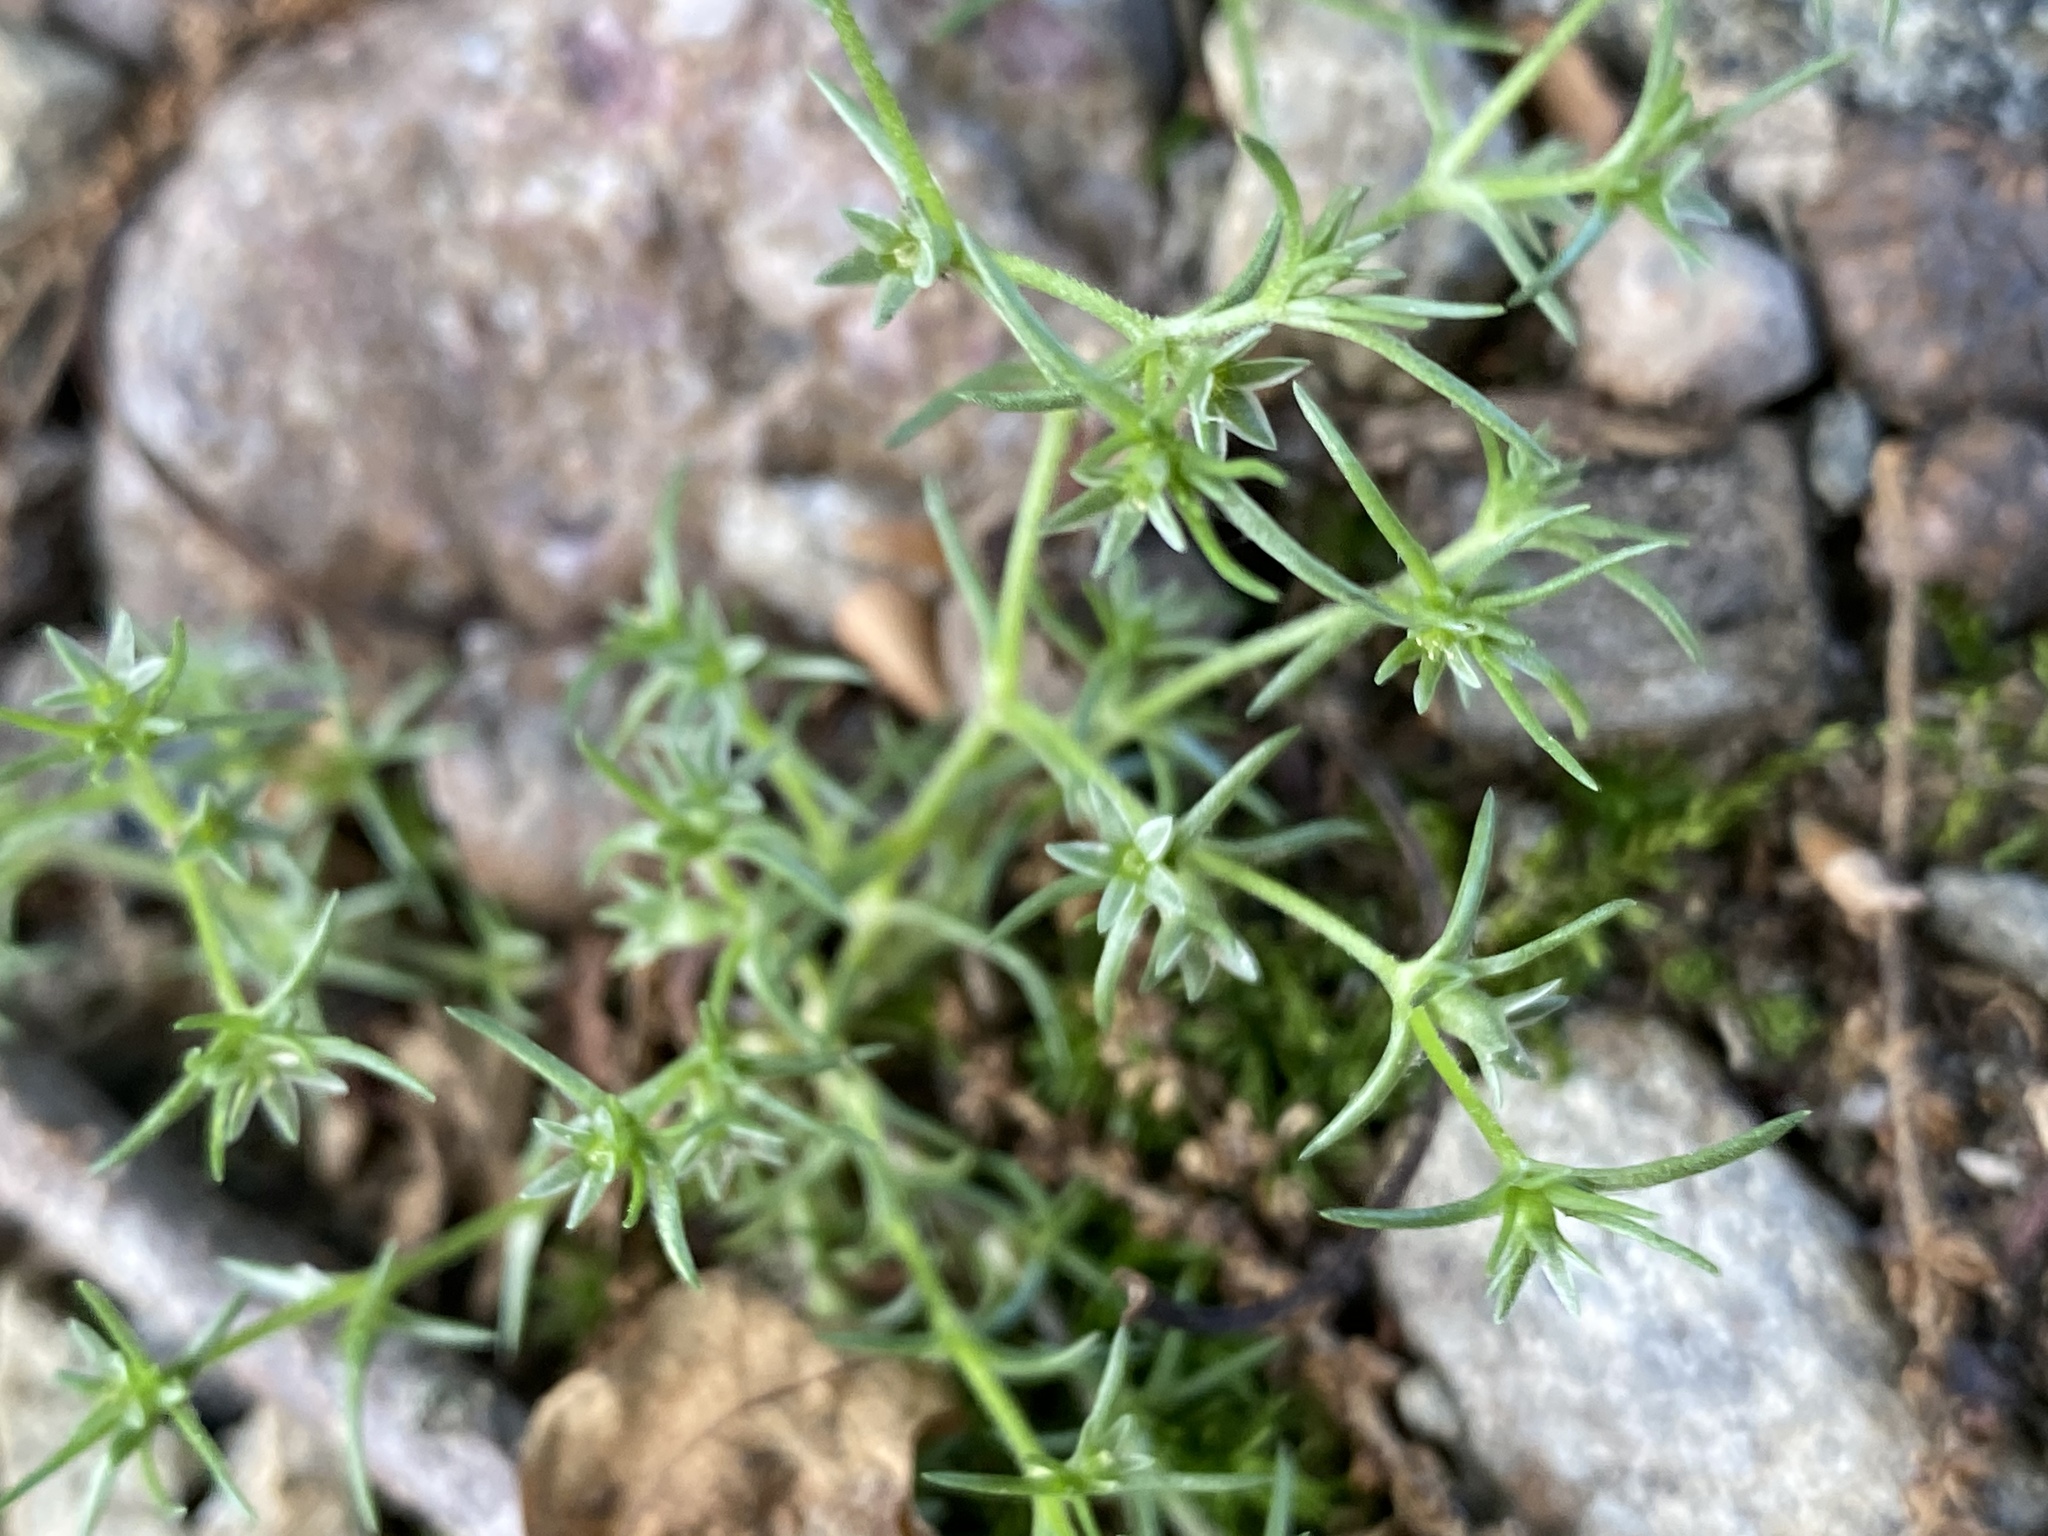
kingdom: Plantae
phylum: Tracheophyta
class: Magnoliopsida
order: Caryophyllales
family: Caryophyllaceae
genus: Scleranthus
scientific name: Scleranthus annuus
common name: Annual knawel
